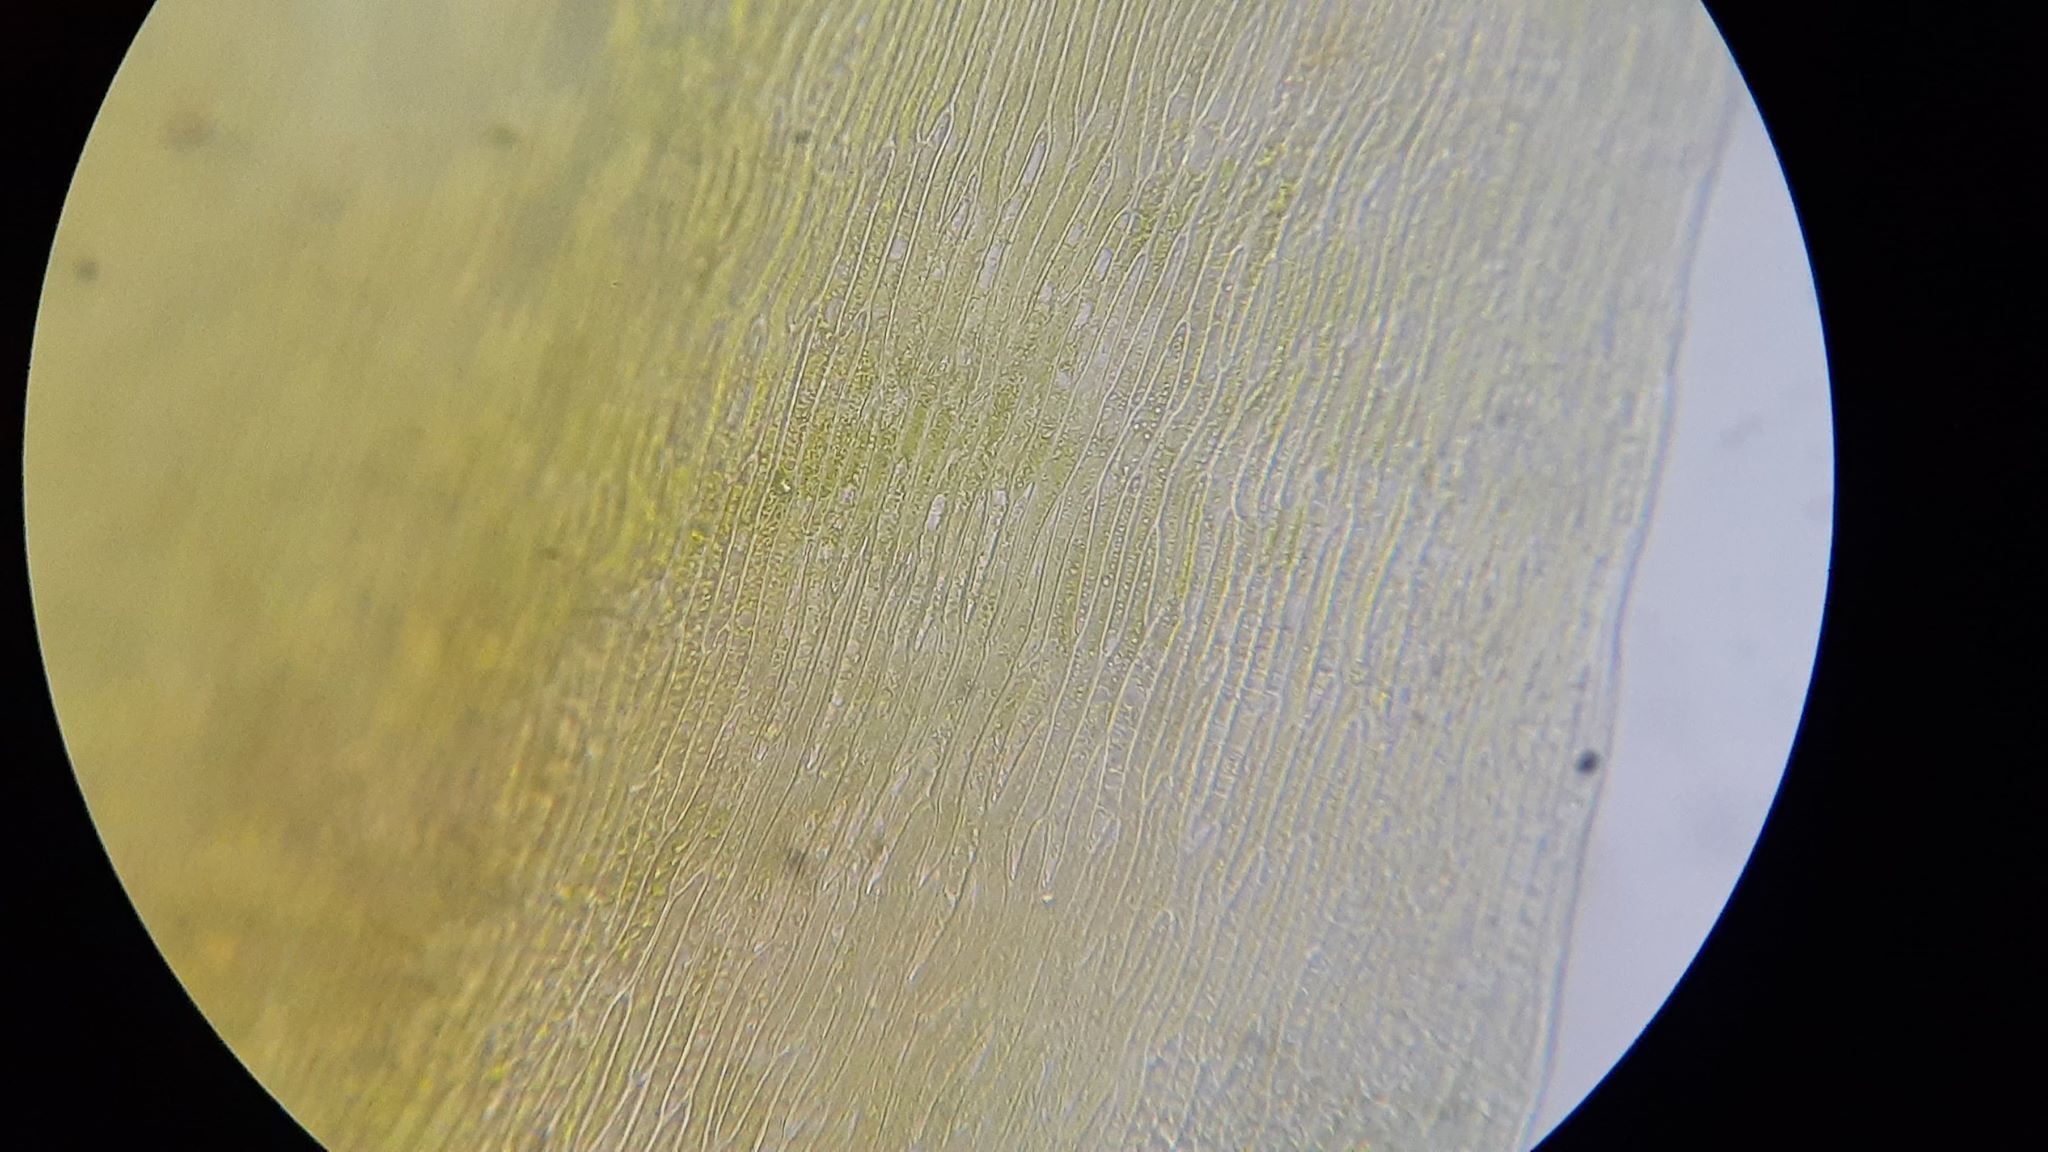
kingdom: Plantae
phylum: Bryophyta
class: Bryopsida
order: Hypnales
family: Pylaisiaceae
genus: Calliergonella
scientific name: Calliergonella cuspidata
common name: Common large wetland moss
